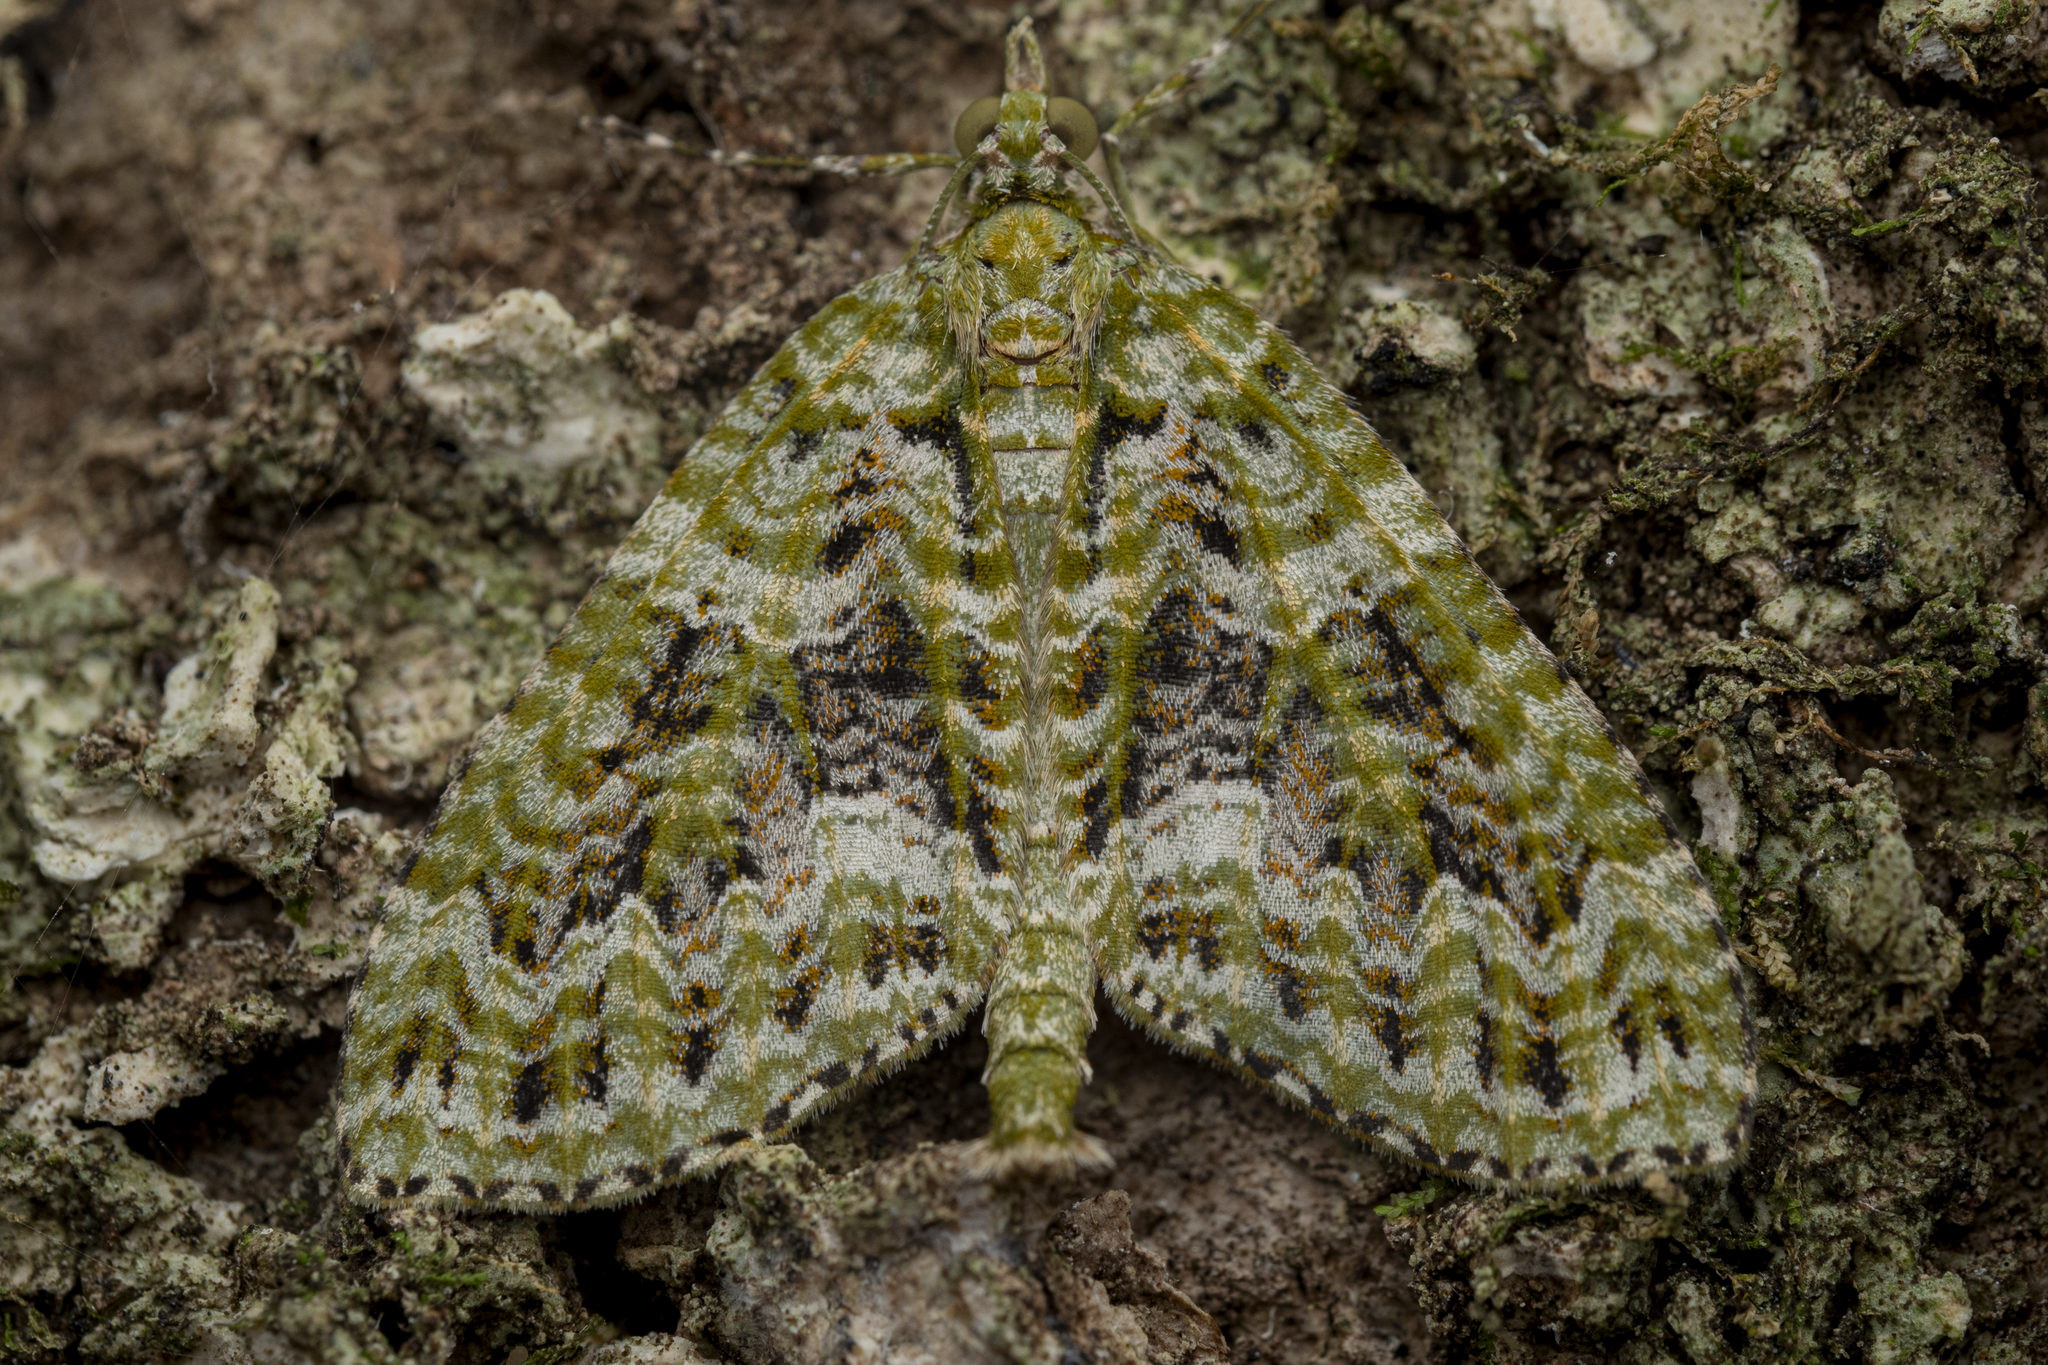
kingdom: Animalia
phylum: Arthropoda
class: Insecta
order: Lepidoptera
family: Geometridae
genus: Tatosoma
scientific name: Tatosoma tipulata
